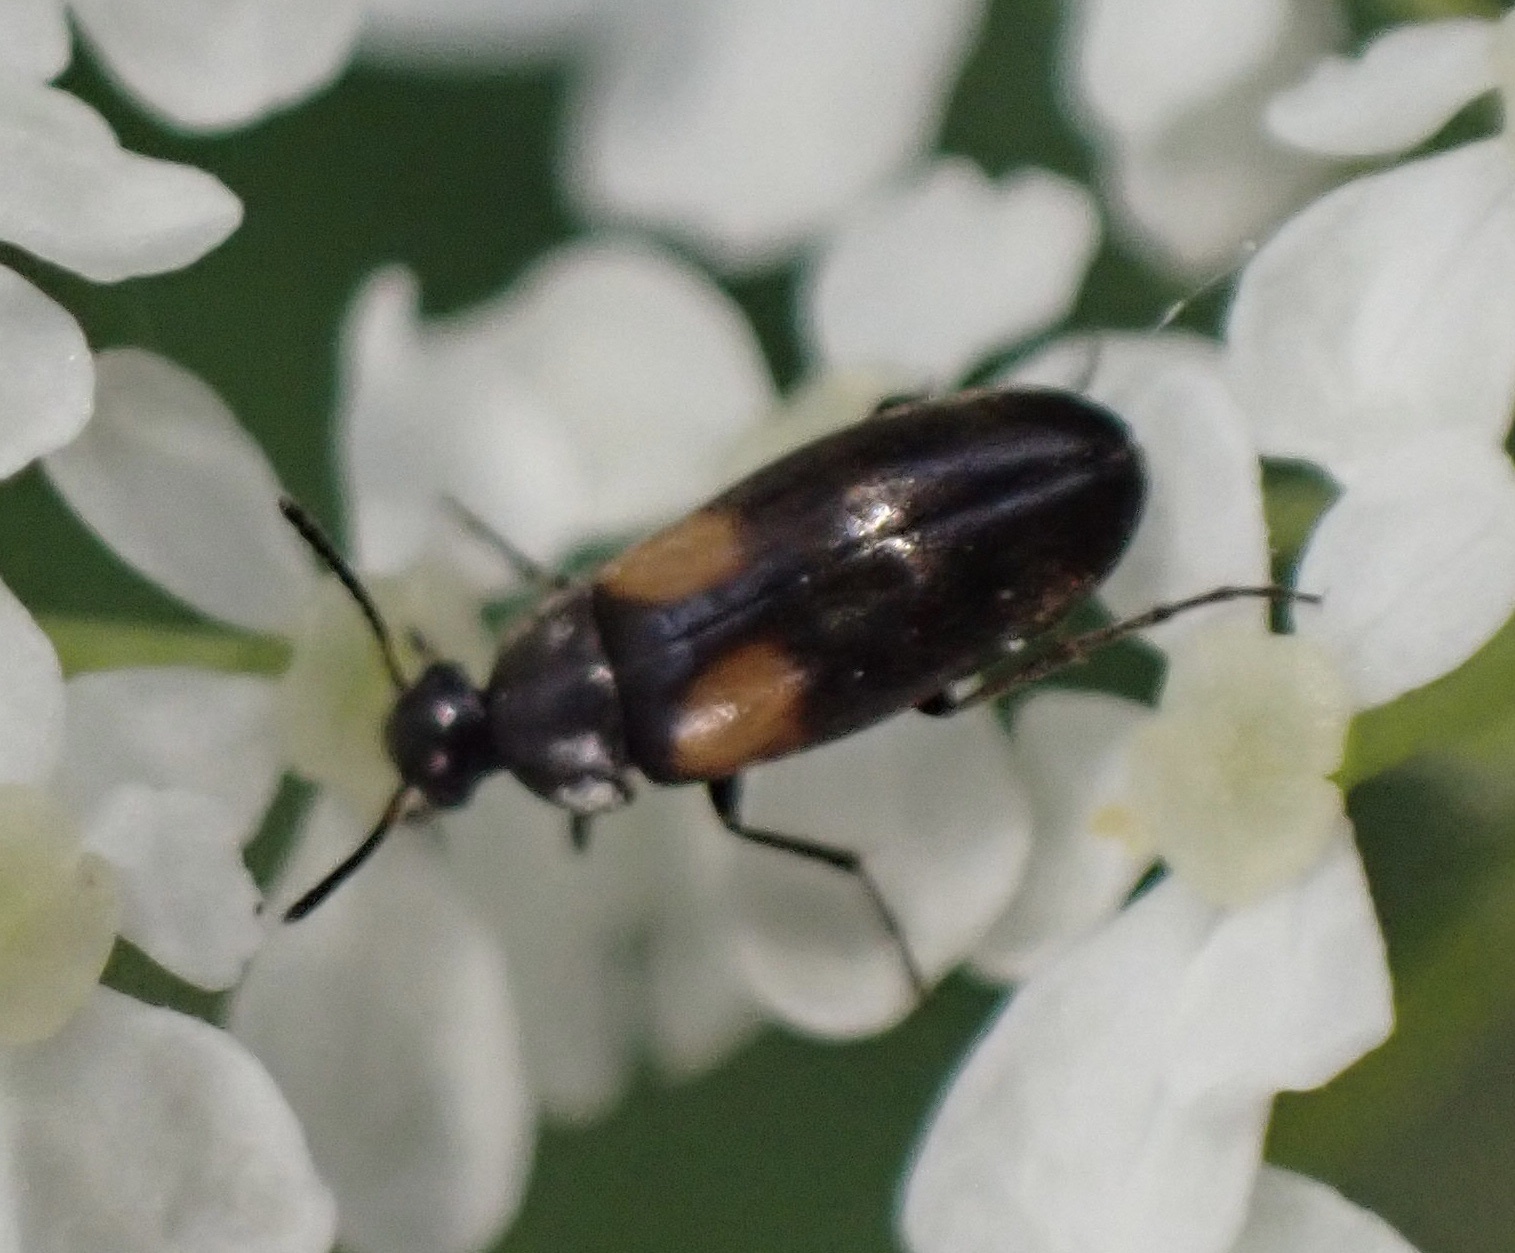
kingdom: Animalia
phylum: Arthropoda
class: Insecta
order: Coleoptera
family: Scraptiidae
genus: Anaspis
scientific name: Anaspis fasciata
